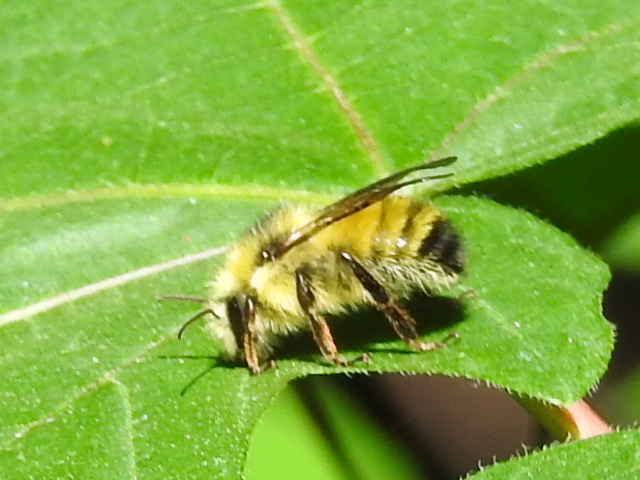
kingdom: Animalia
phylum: Arthropoda
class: Insecta
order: Hymenoptera
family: Apidae
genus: Bombus
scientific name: Bombus flavifrons
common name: Yellow head bumble bee
